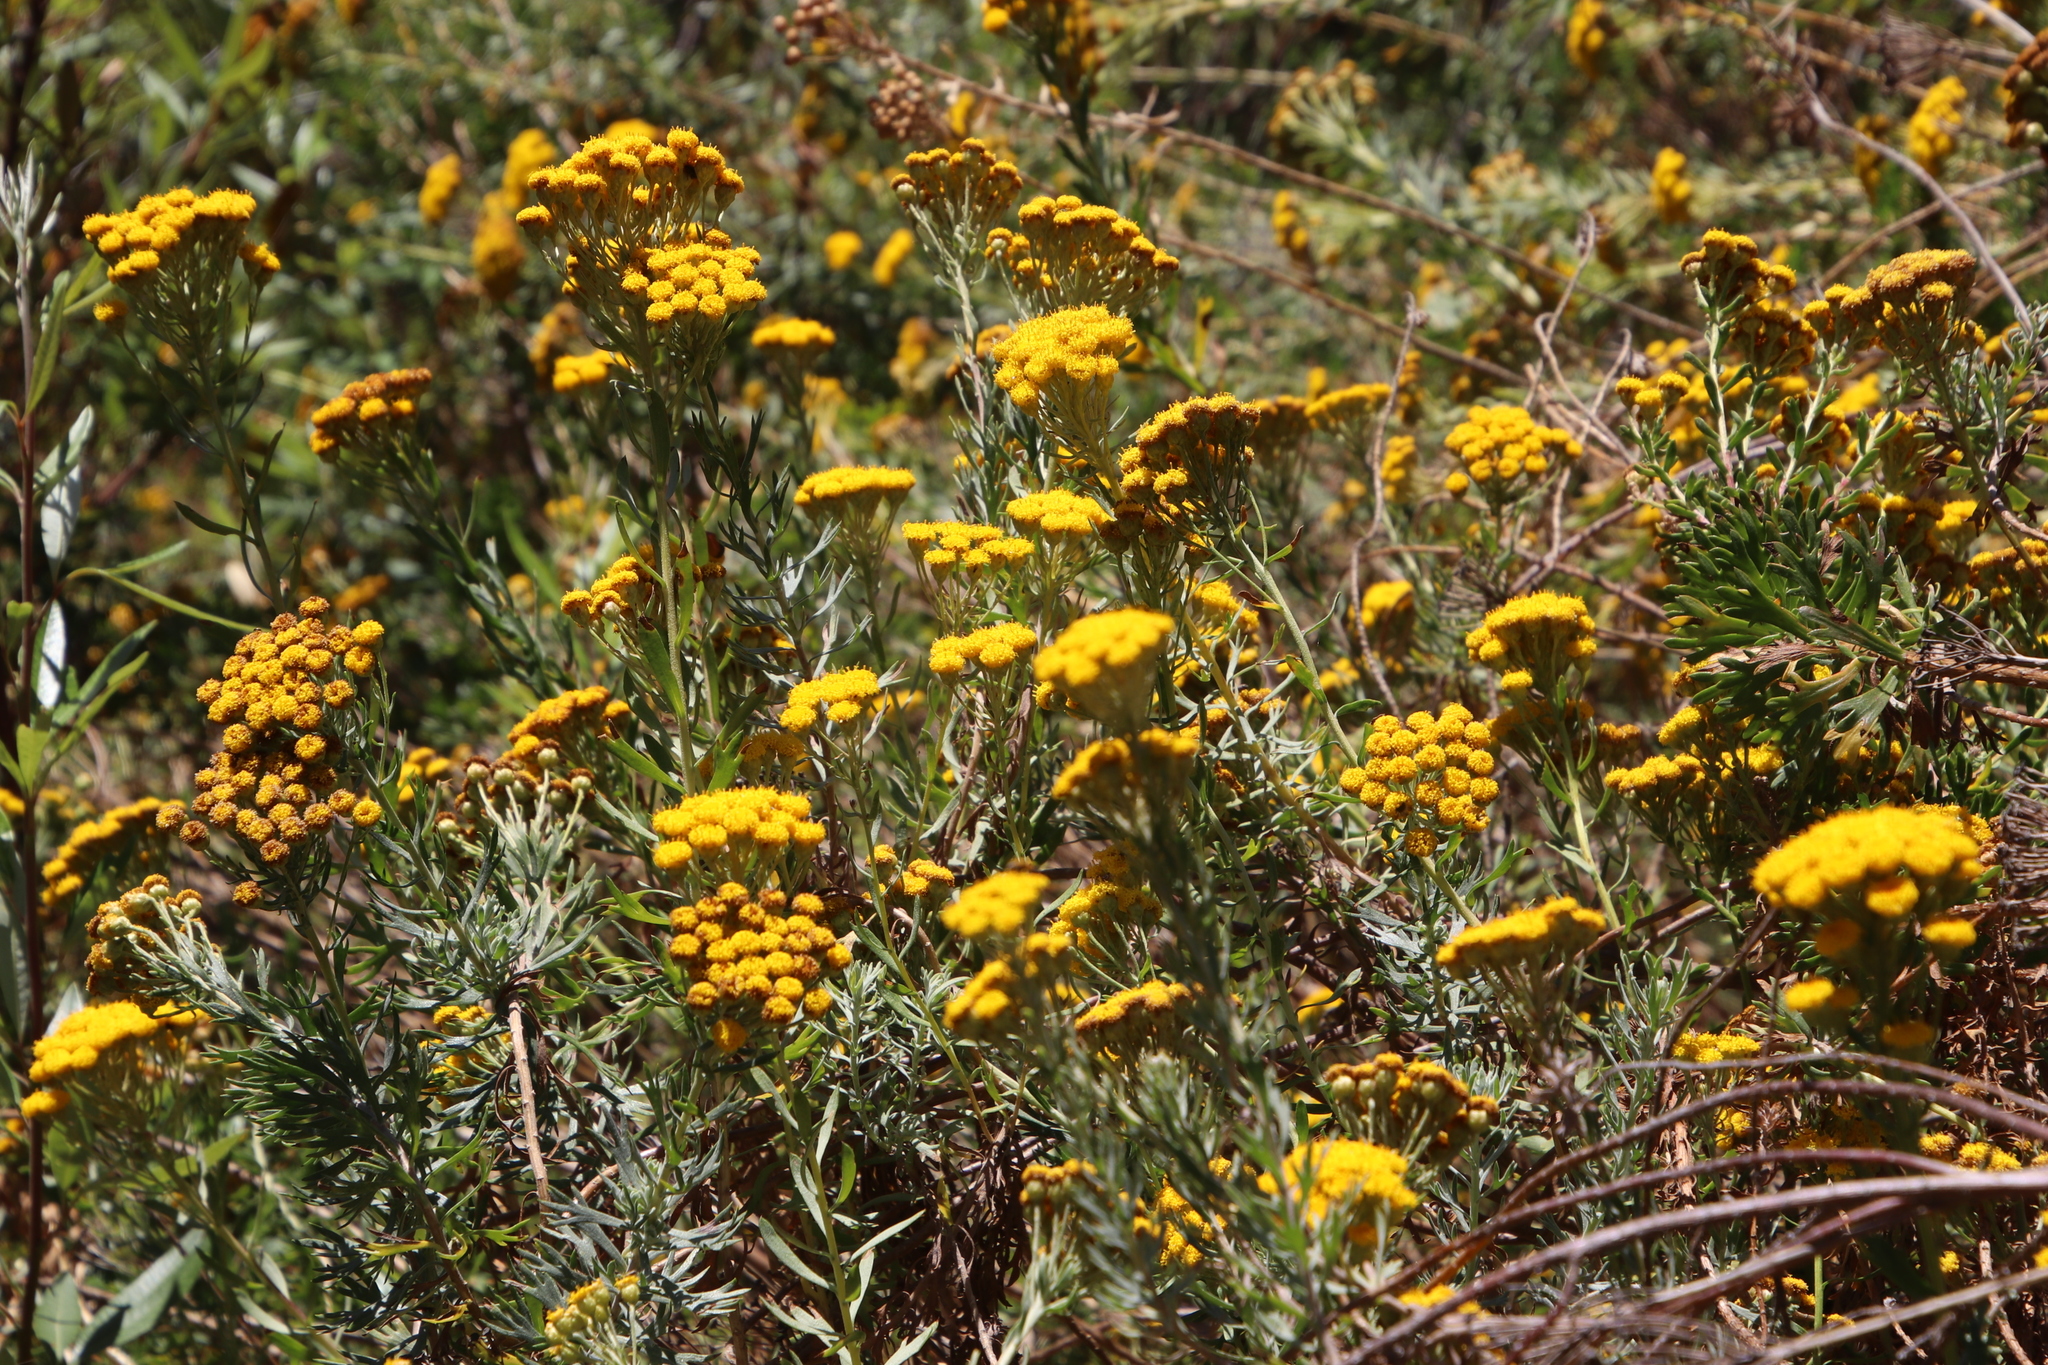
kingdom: Plantae
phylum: Tracheophyta
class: Magnoliopsida
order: Asterales
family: Asteraceae
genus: Athanasia
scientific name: Athanasia trifurcata
